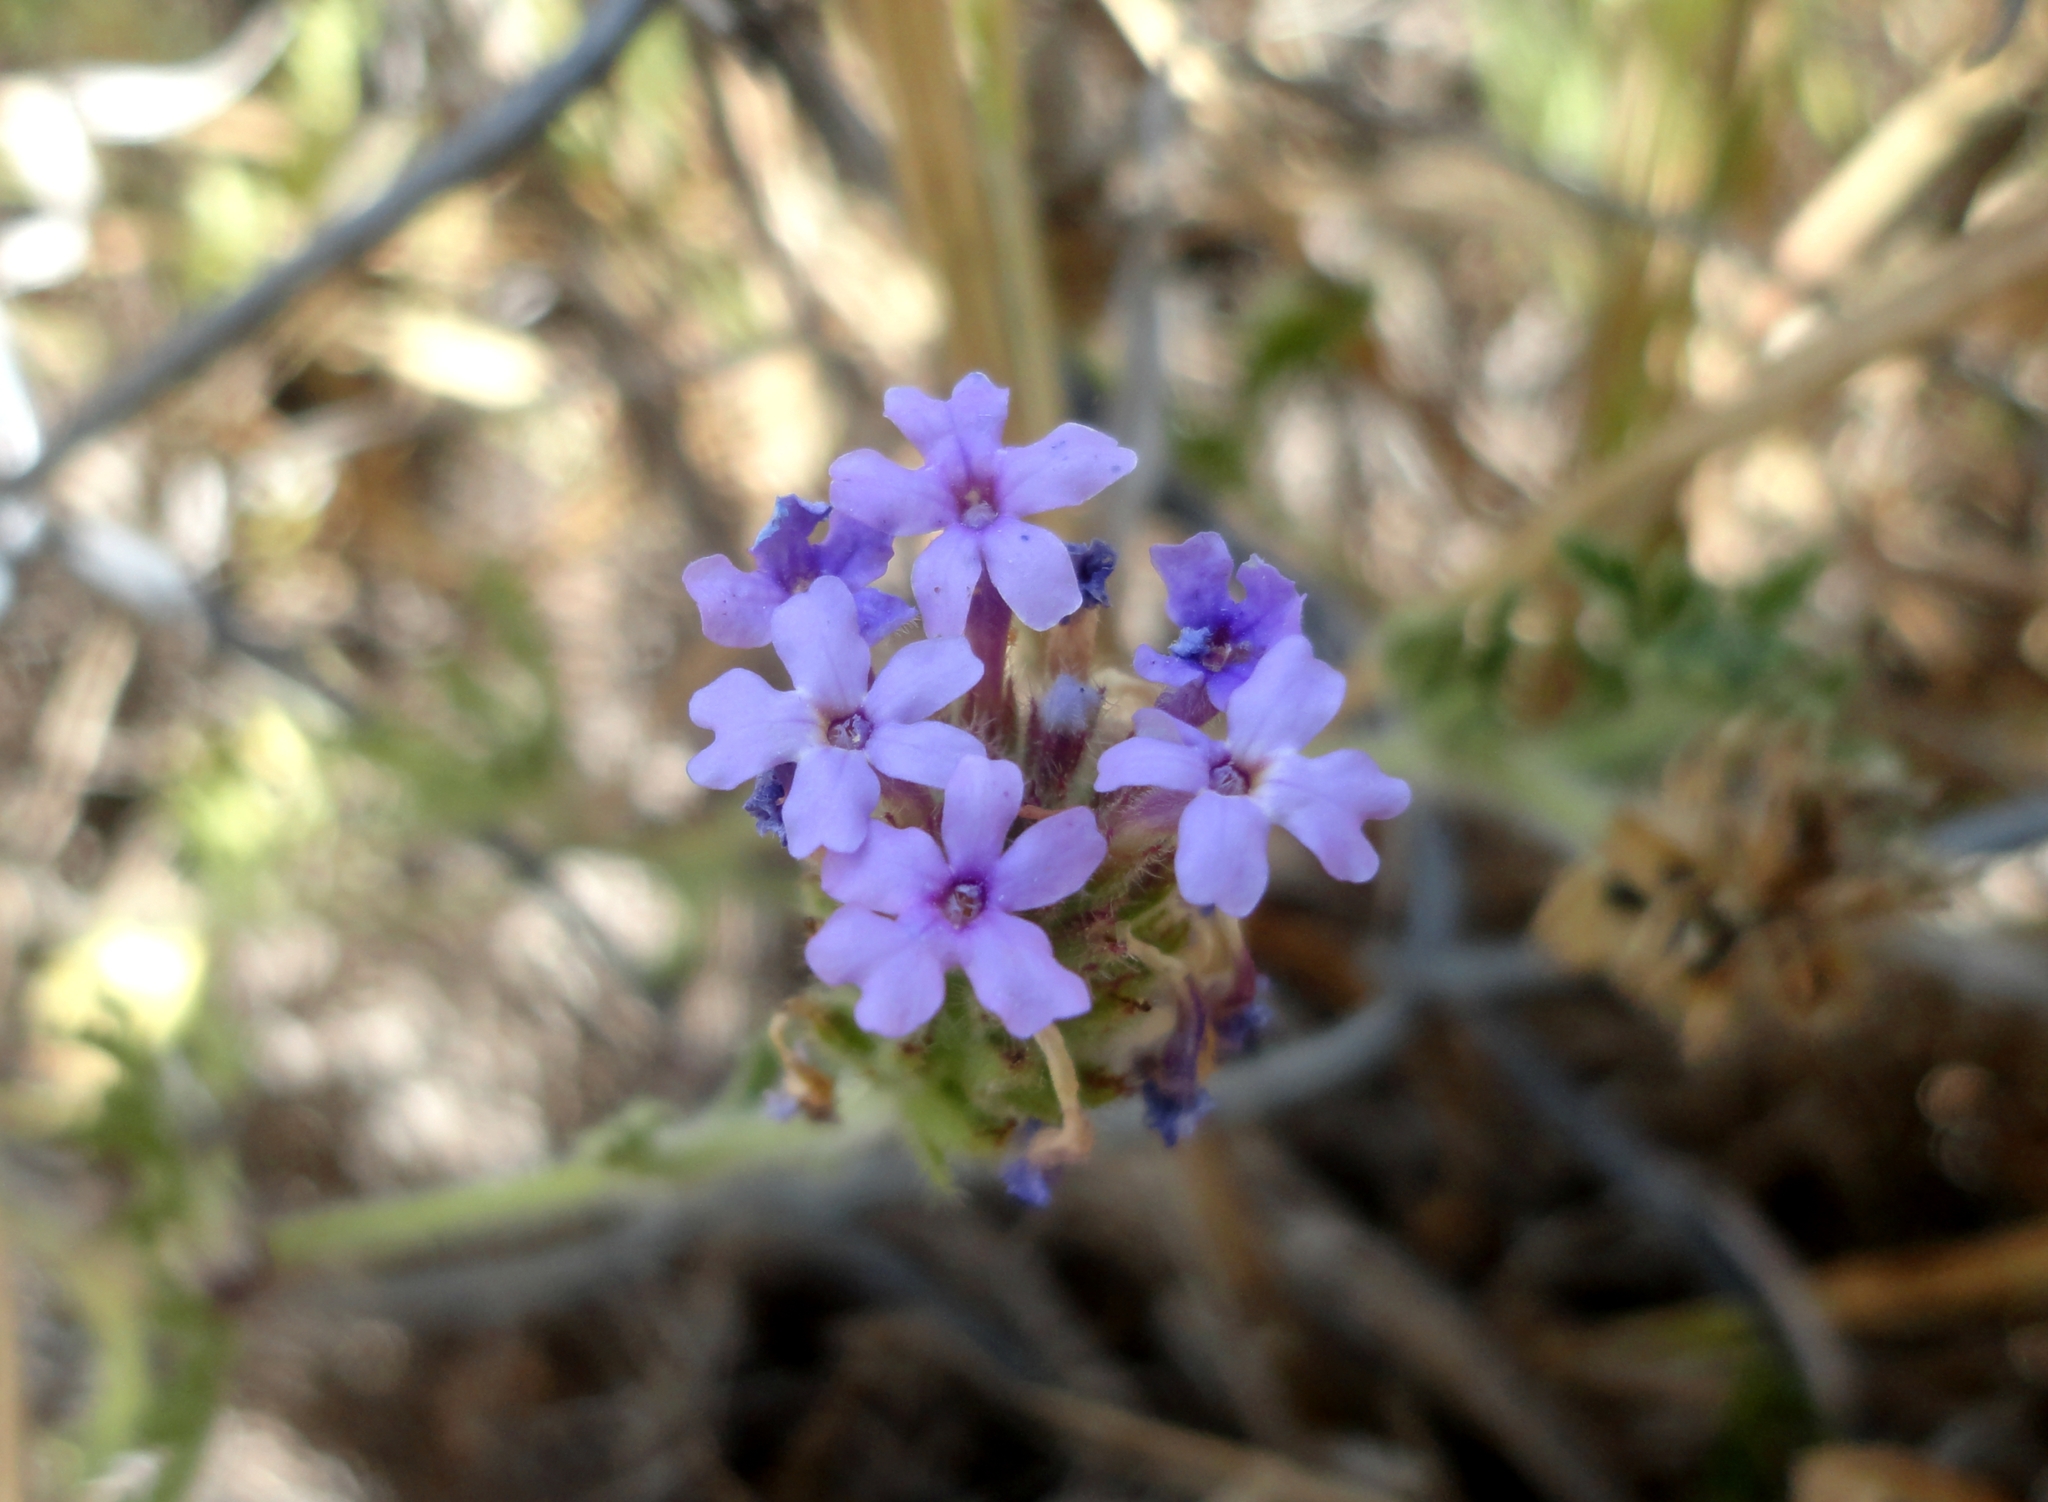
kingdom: Plantae
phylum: Tracheophyta
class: Magnoliopsida
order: Lamiales
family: Verbenaceae
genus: Verbena
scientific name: Verbena bipinnatifida
